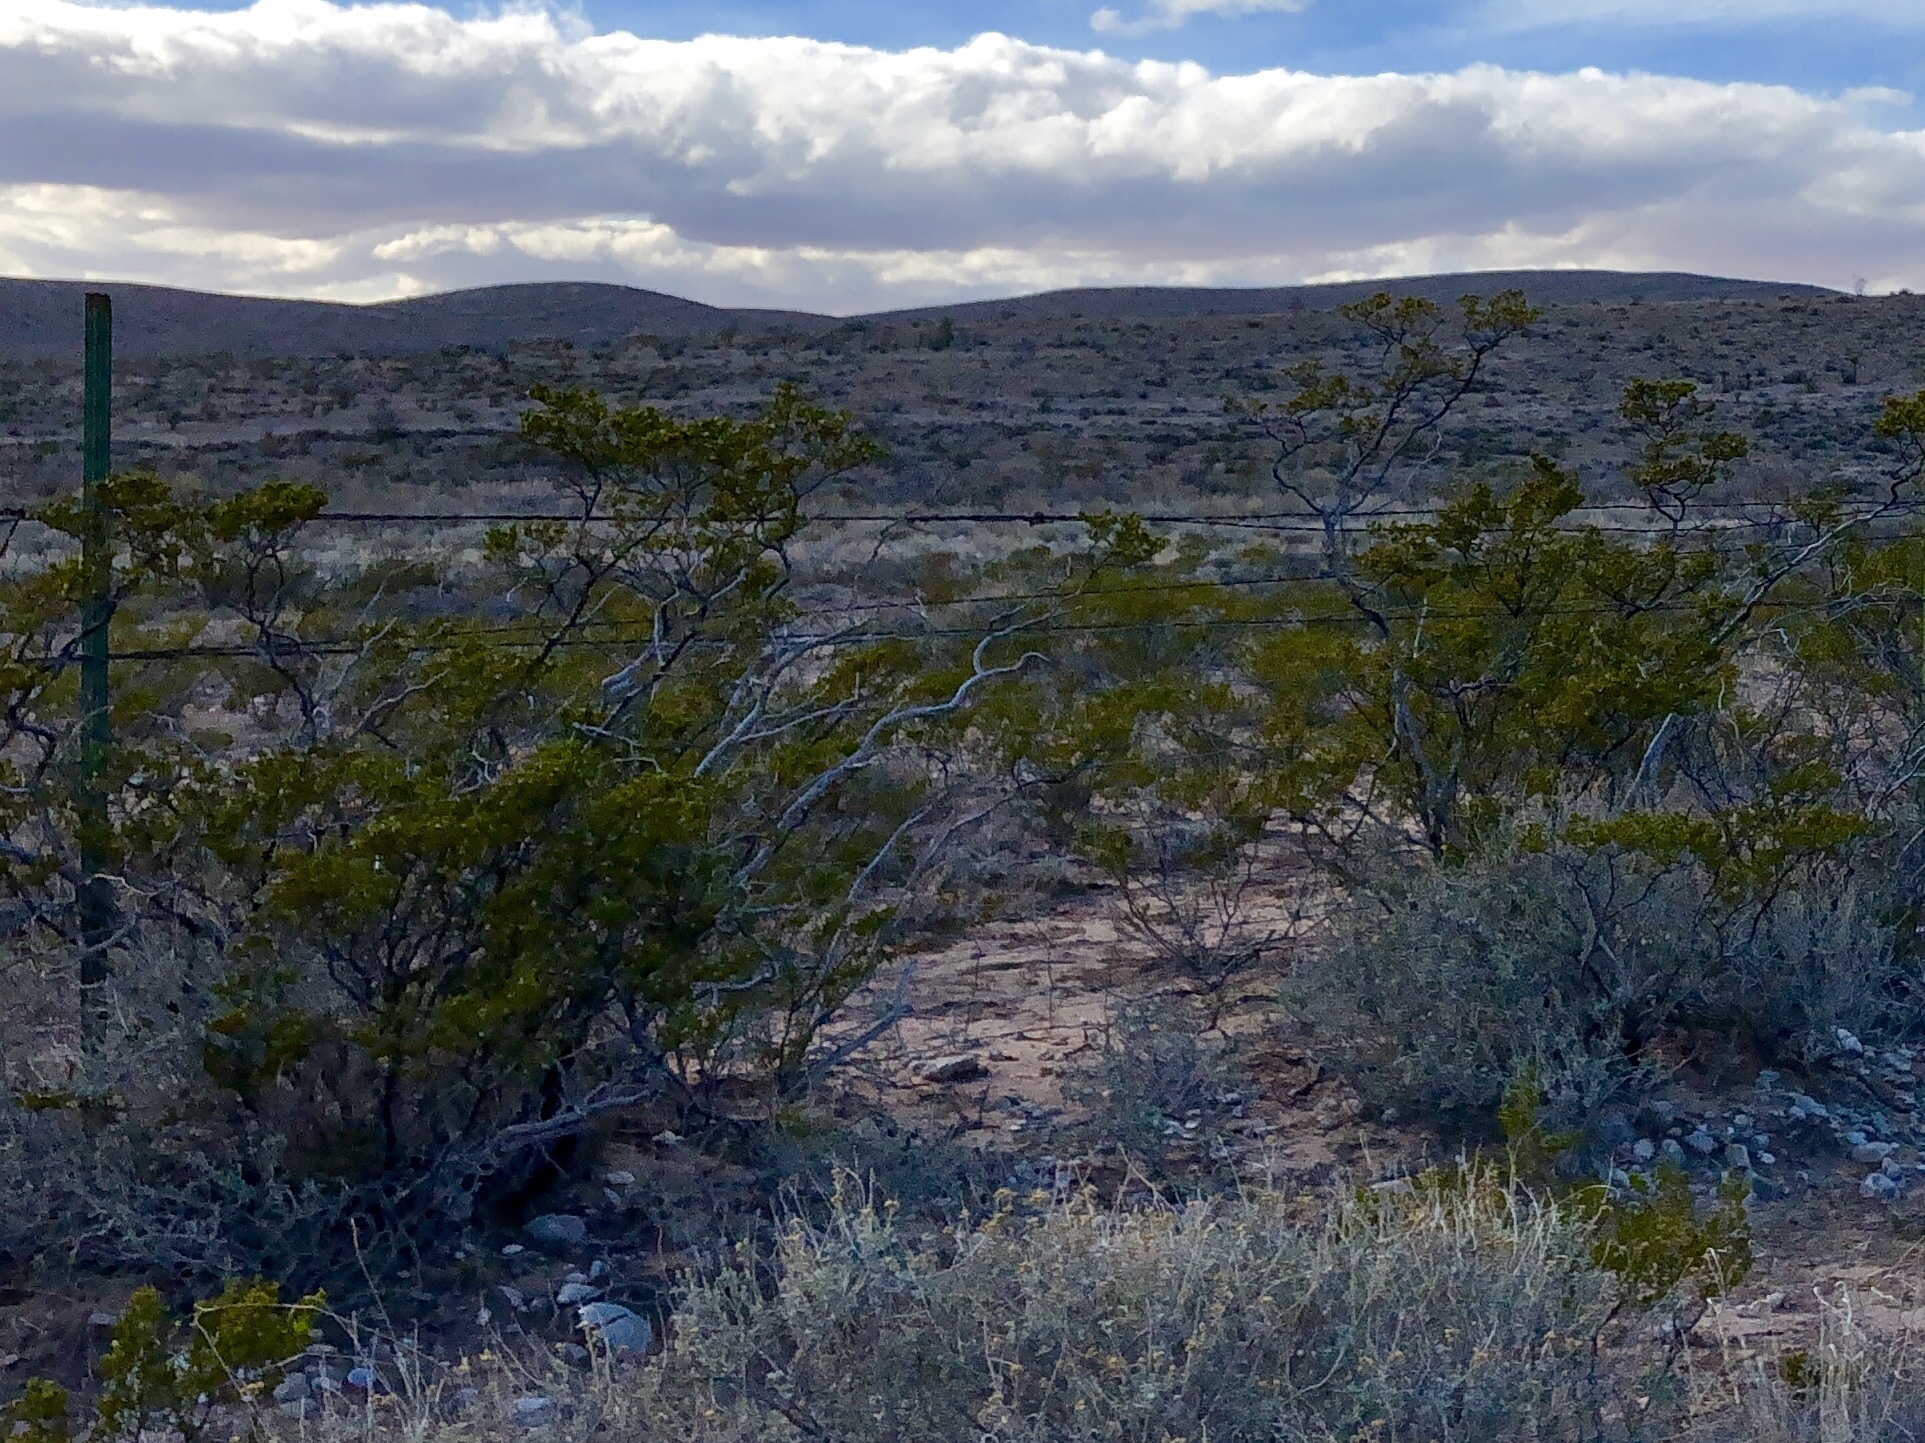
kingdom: Plantae
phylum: Tracheophyta
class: Magnoliopsida
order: Zygophyllales
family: Zygophyllaceae
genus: Larrea
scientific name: Larrea tridentata
